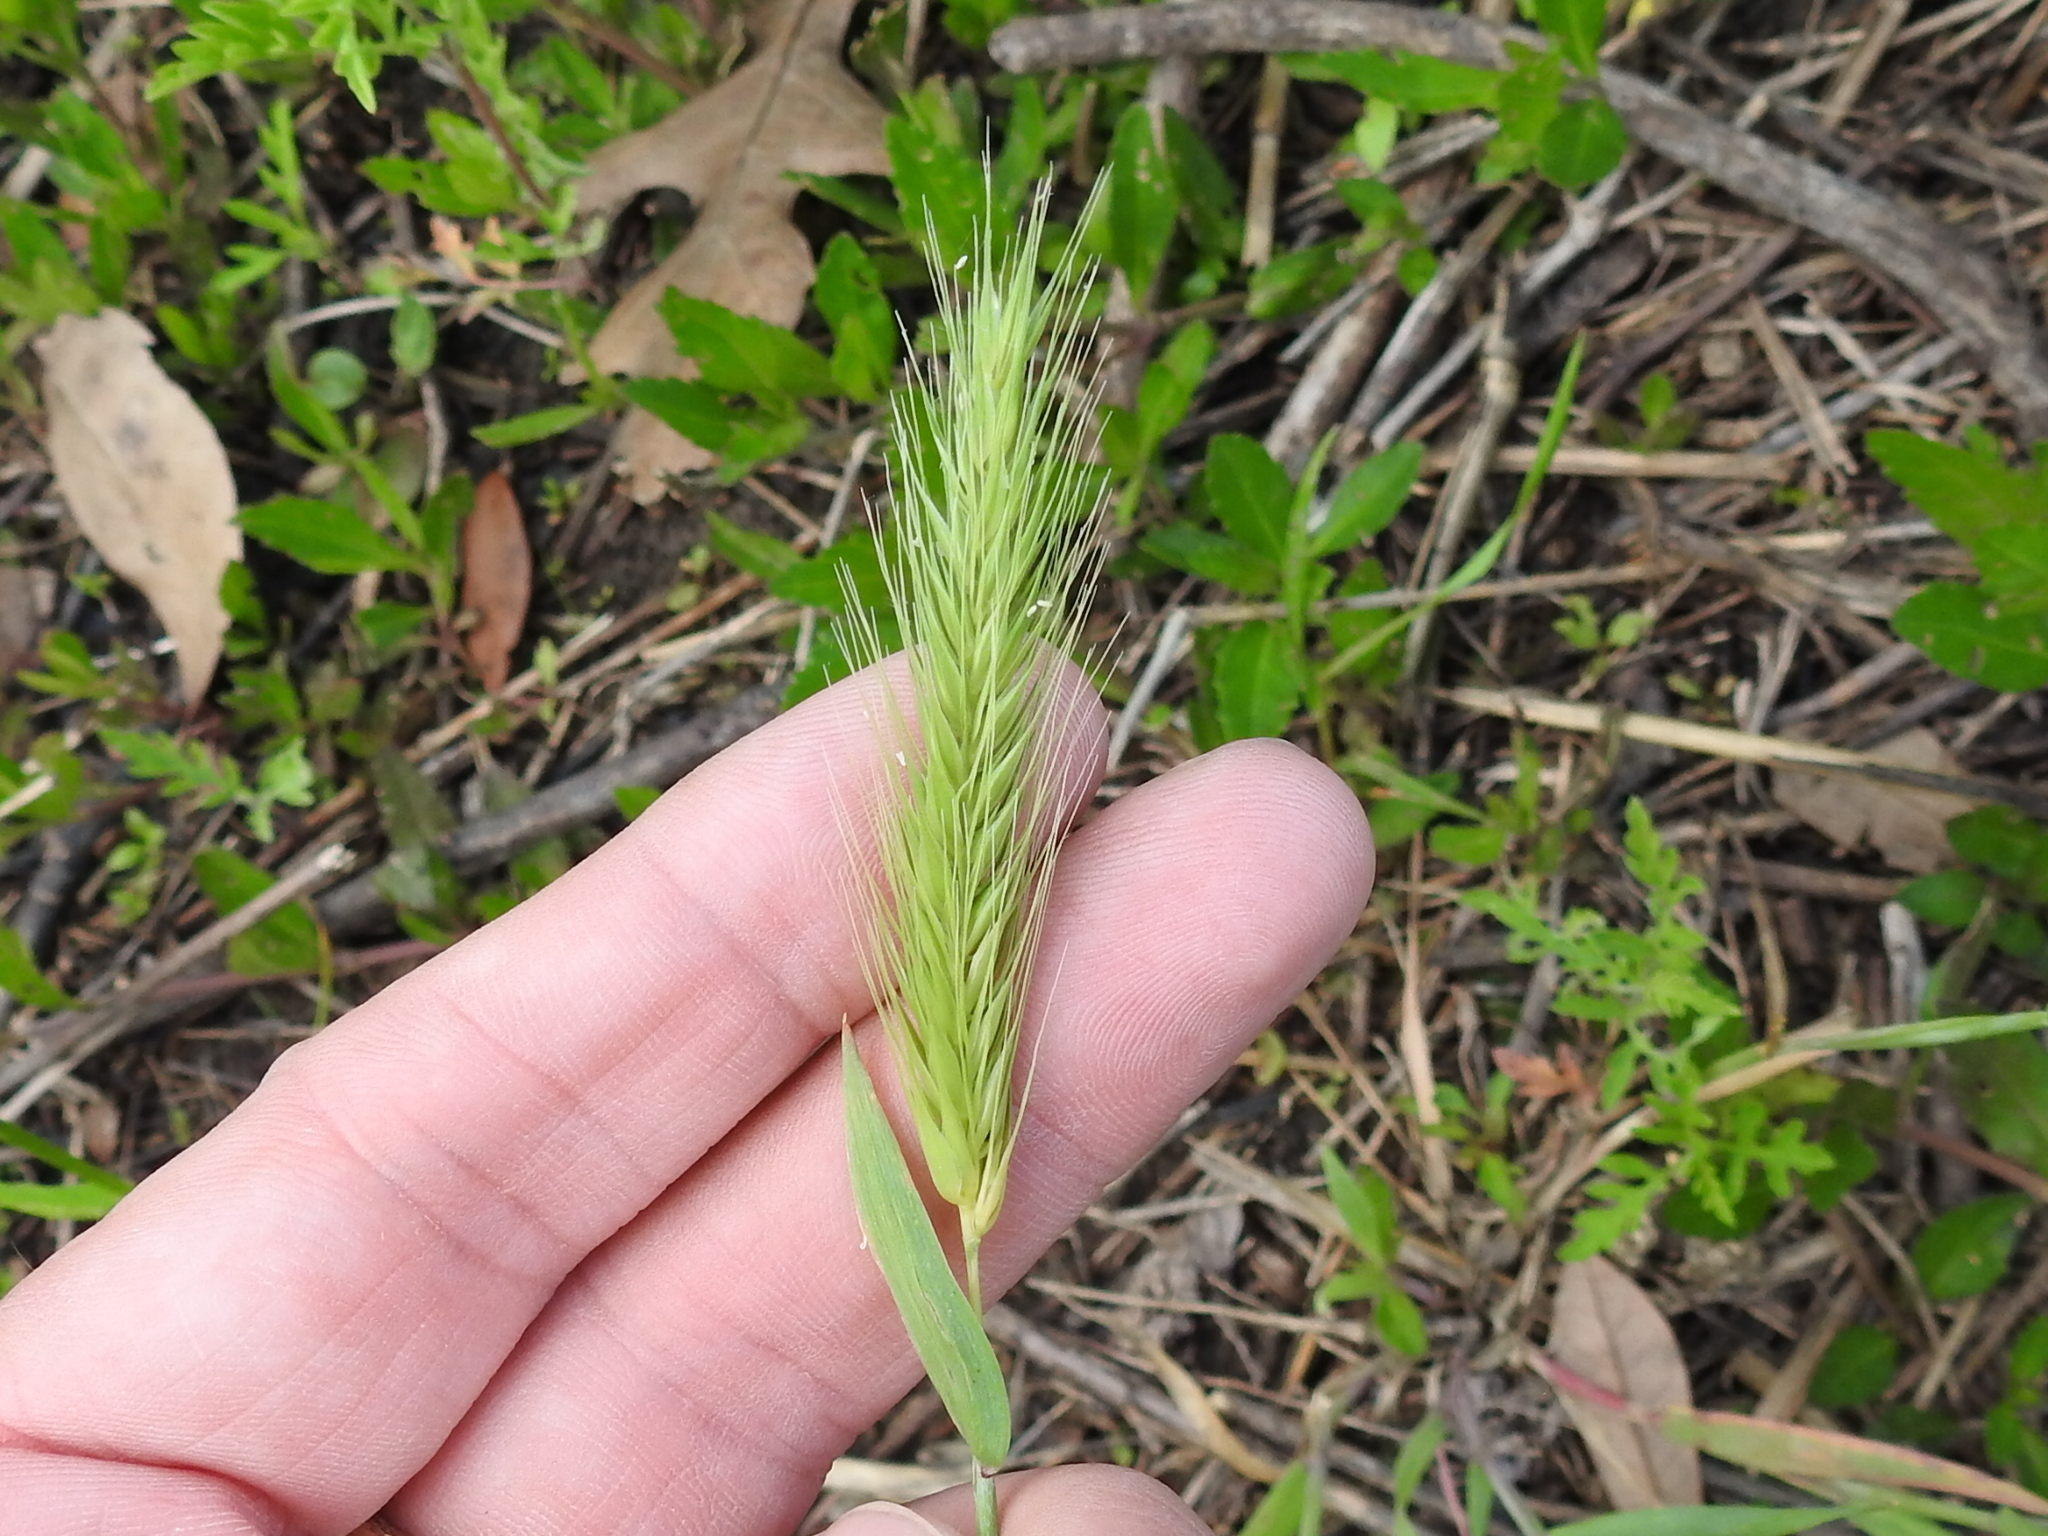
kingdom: Plantae
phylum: Tracheophyta
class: Liliopsida
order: Poales
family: Poaceae
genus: Hordeum
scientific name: Hordeum pusillum
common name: Little barley
